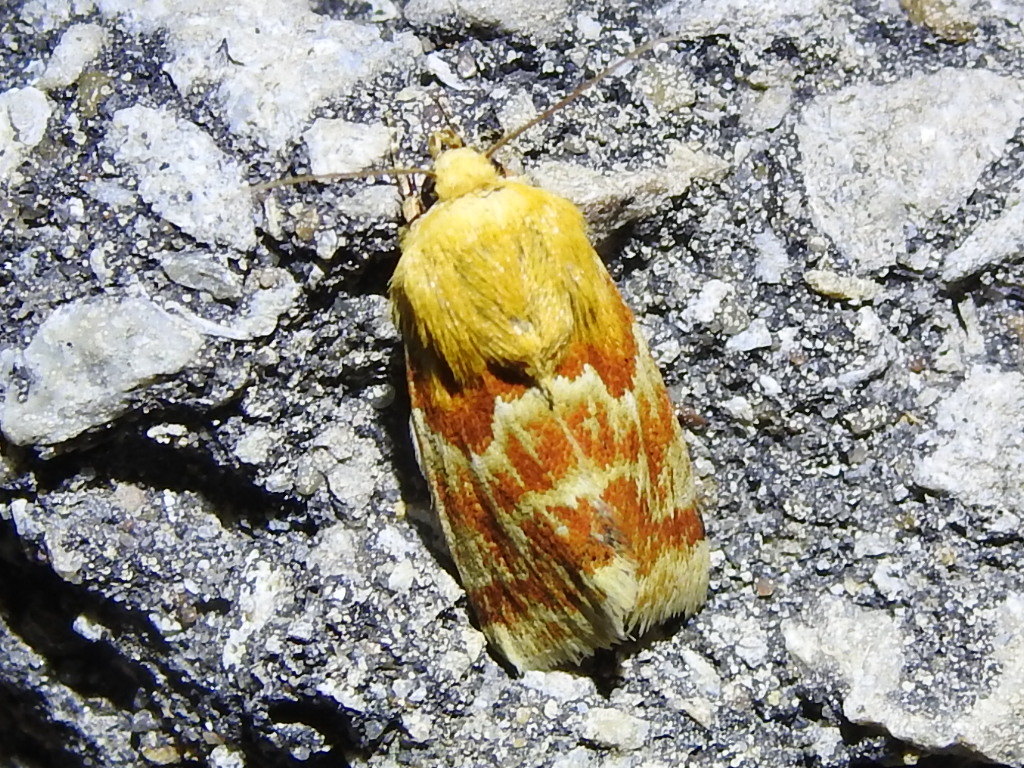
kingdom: Animalia
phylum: Arthropoda
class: Insecta
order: Lepidoptera
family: Noctuidae
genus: Schinia
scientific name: Schinia siren
